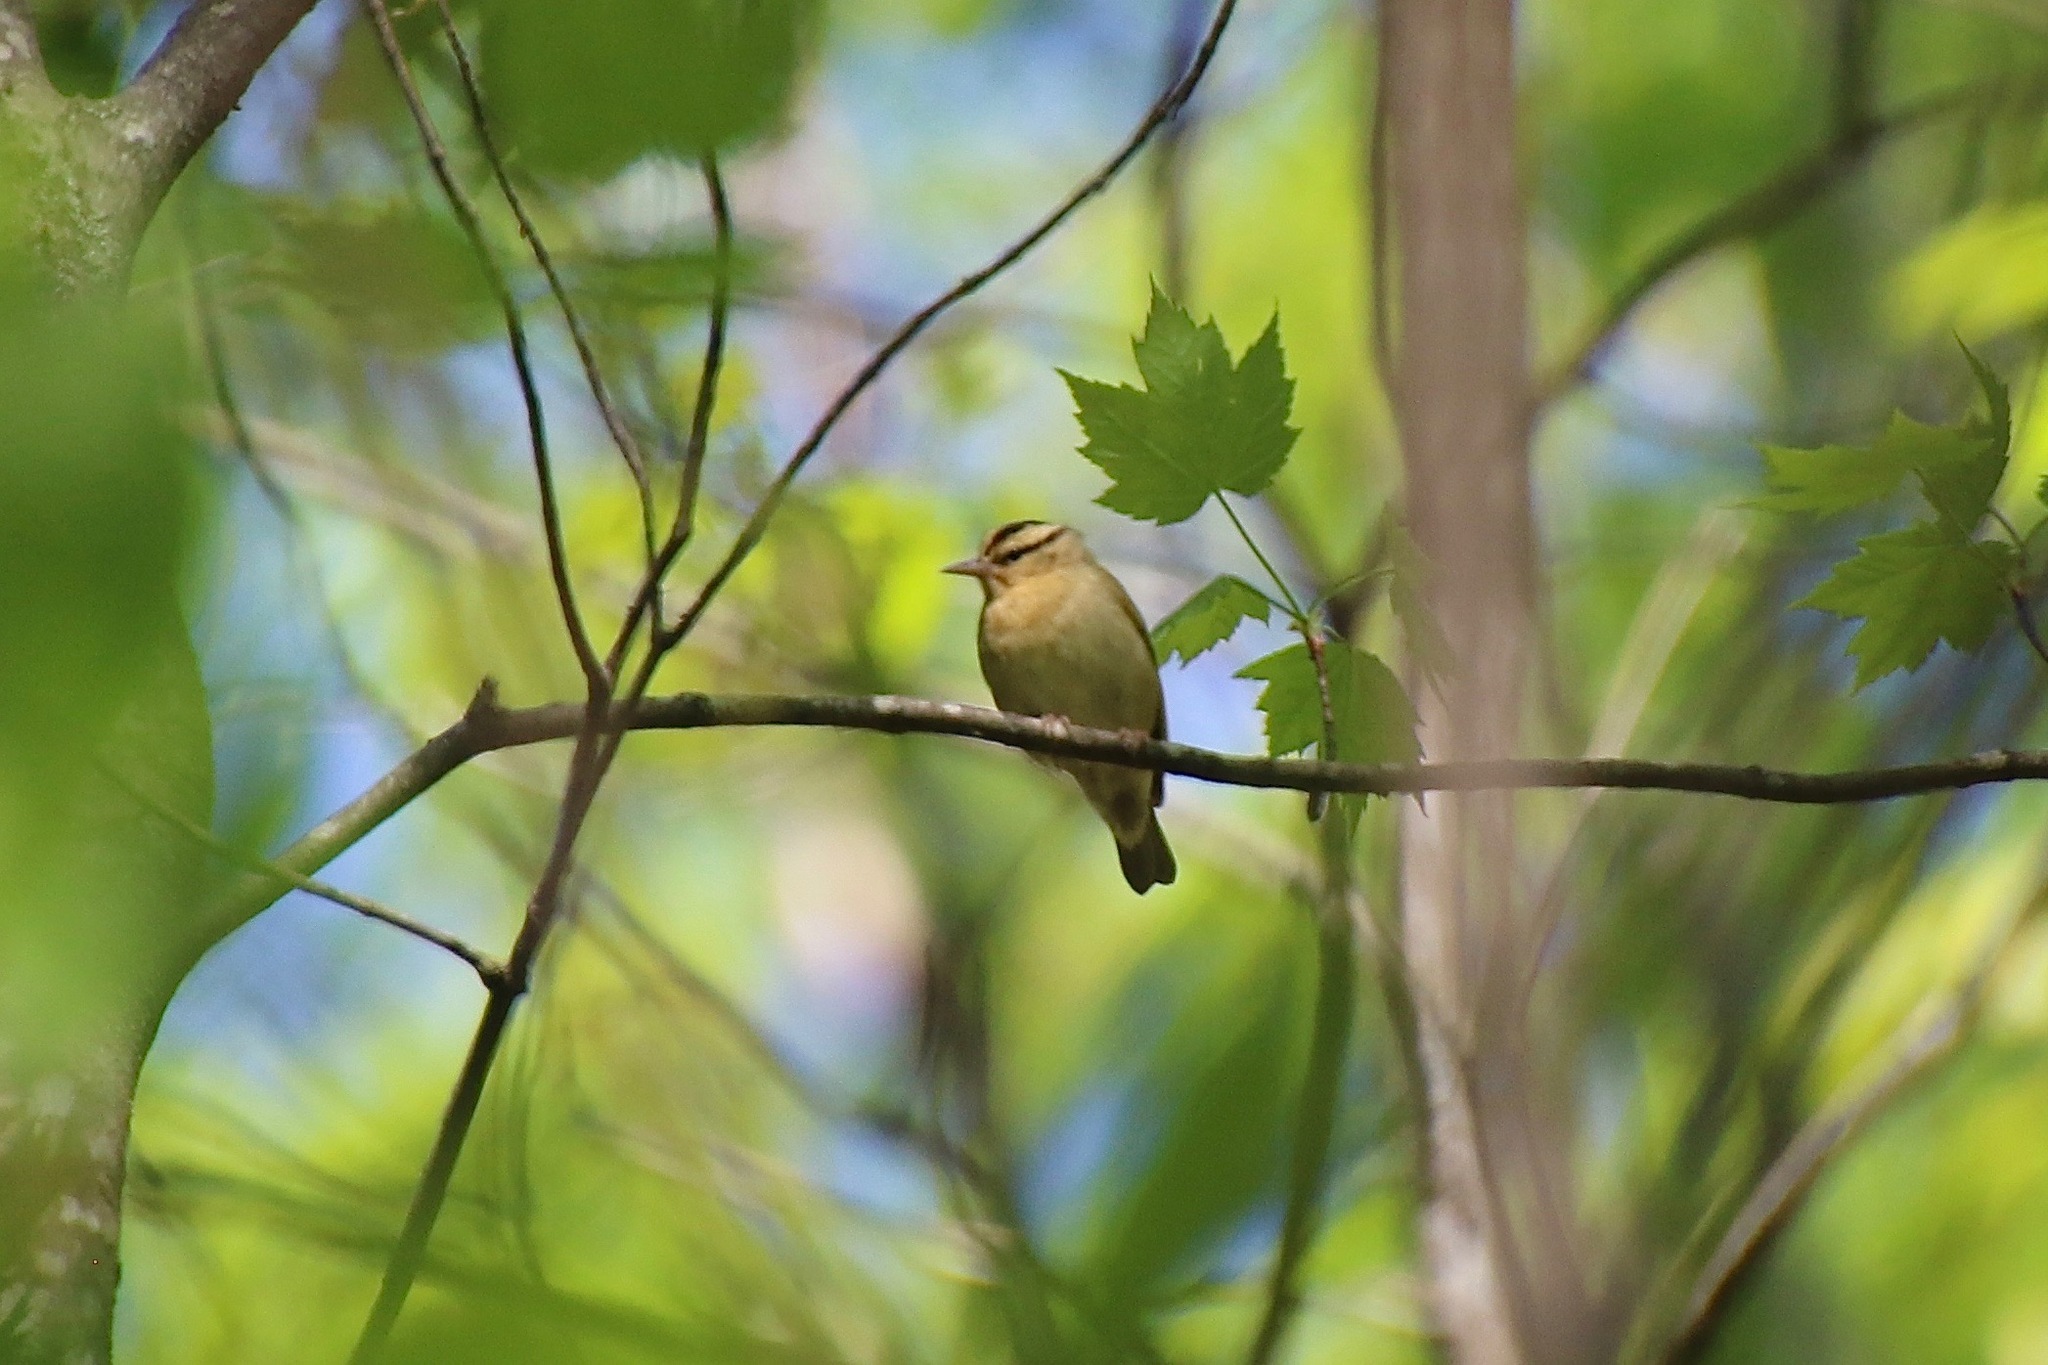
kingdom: Animalia
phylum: Chordata
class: Aves
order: Passeriformes
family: Parulidae
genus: Helmitheros
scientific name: Helmitheros vermivorum
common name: Worm-eating warbler
